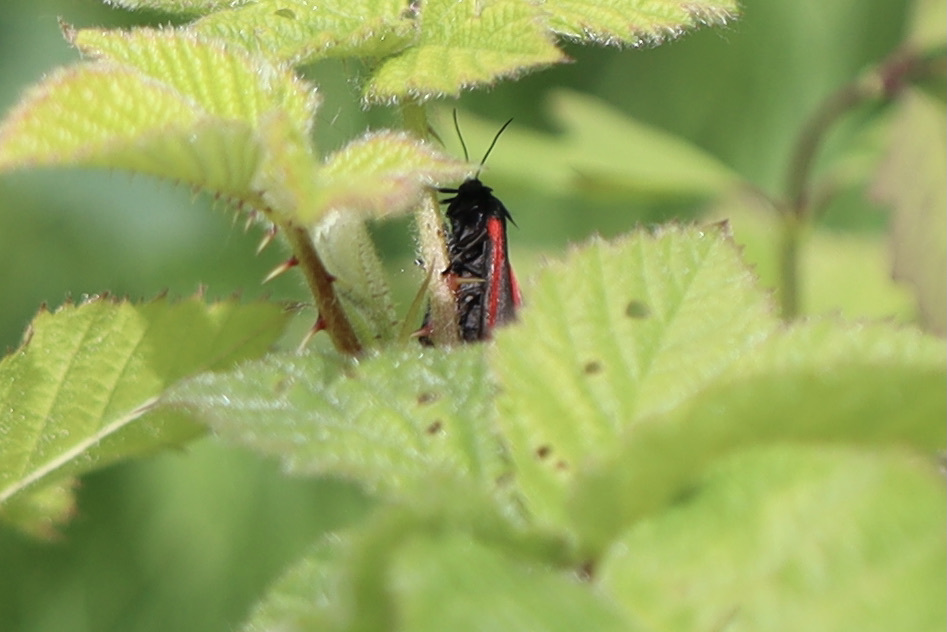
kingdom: Animalia
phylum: Arthropoda
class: Insecta
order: Lepidoptera
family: Erebidae
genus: Tyria
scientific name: Tyria jacobaeae
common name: Cinnabar
